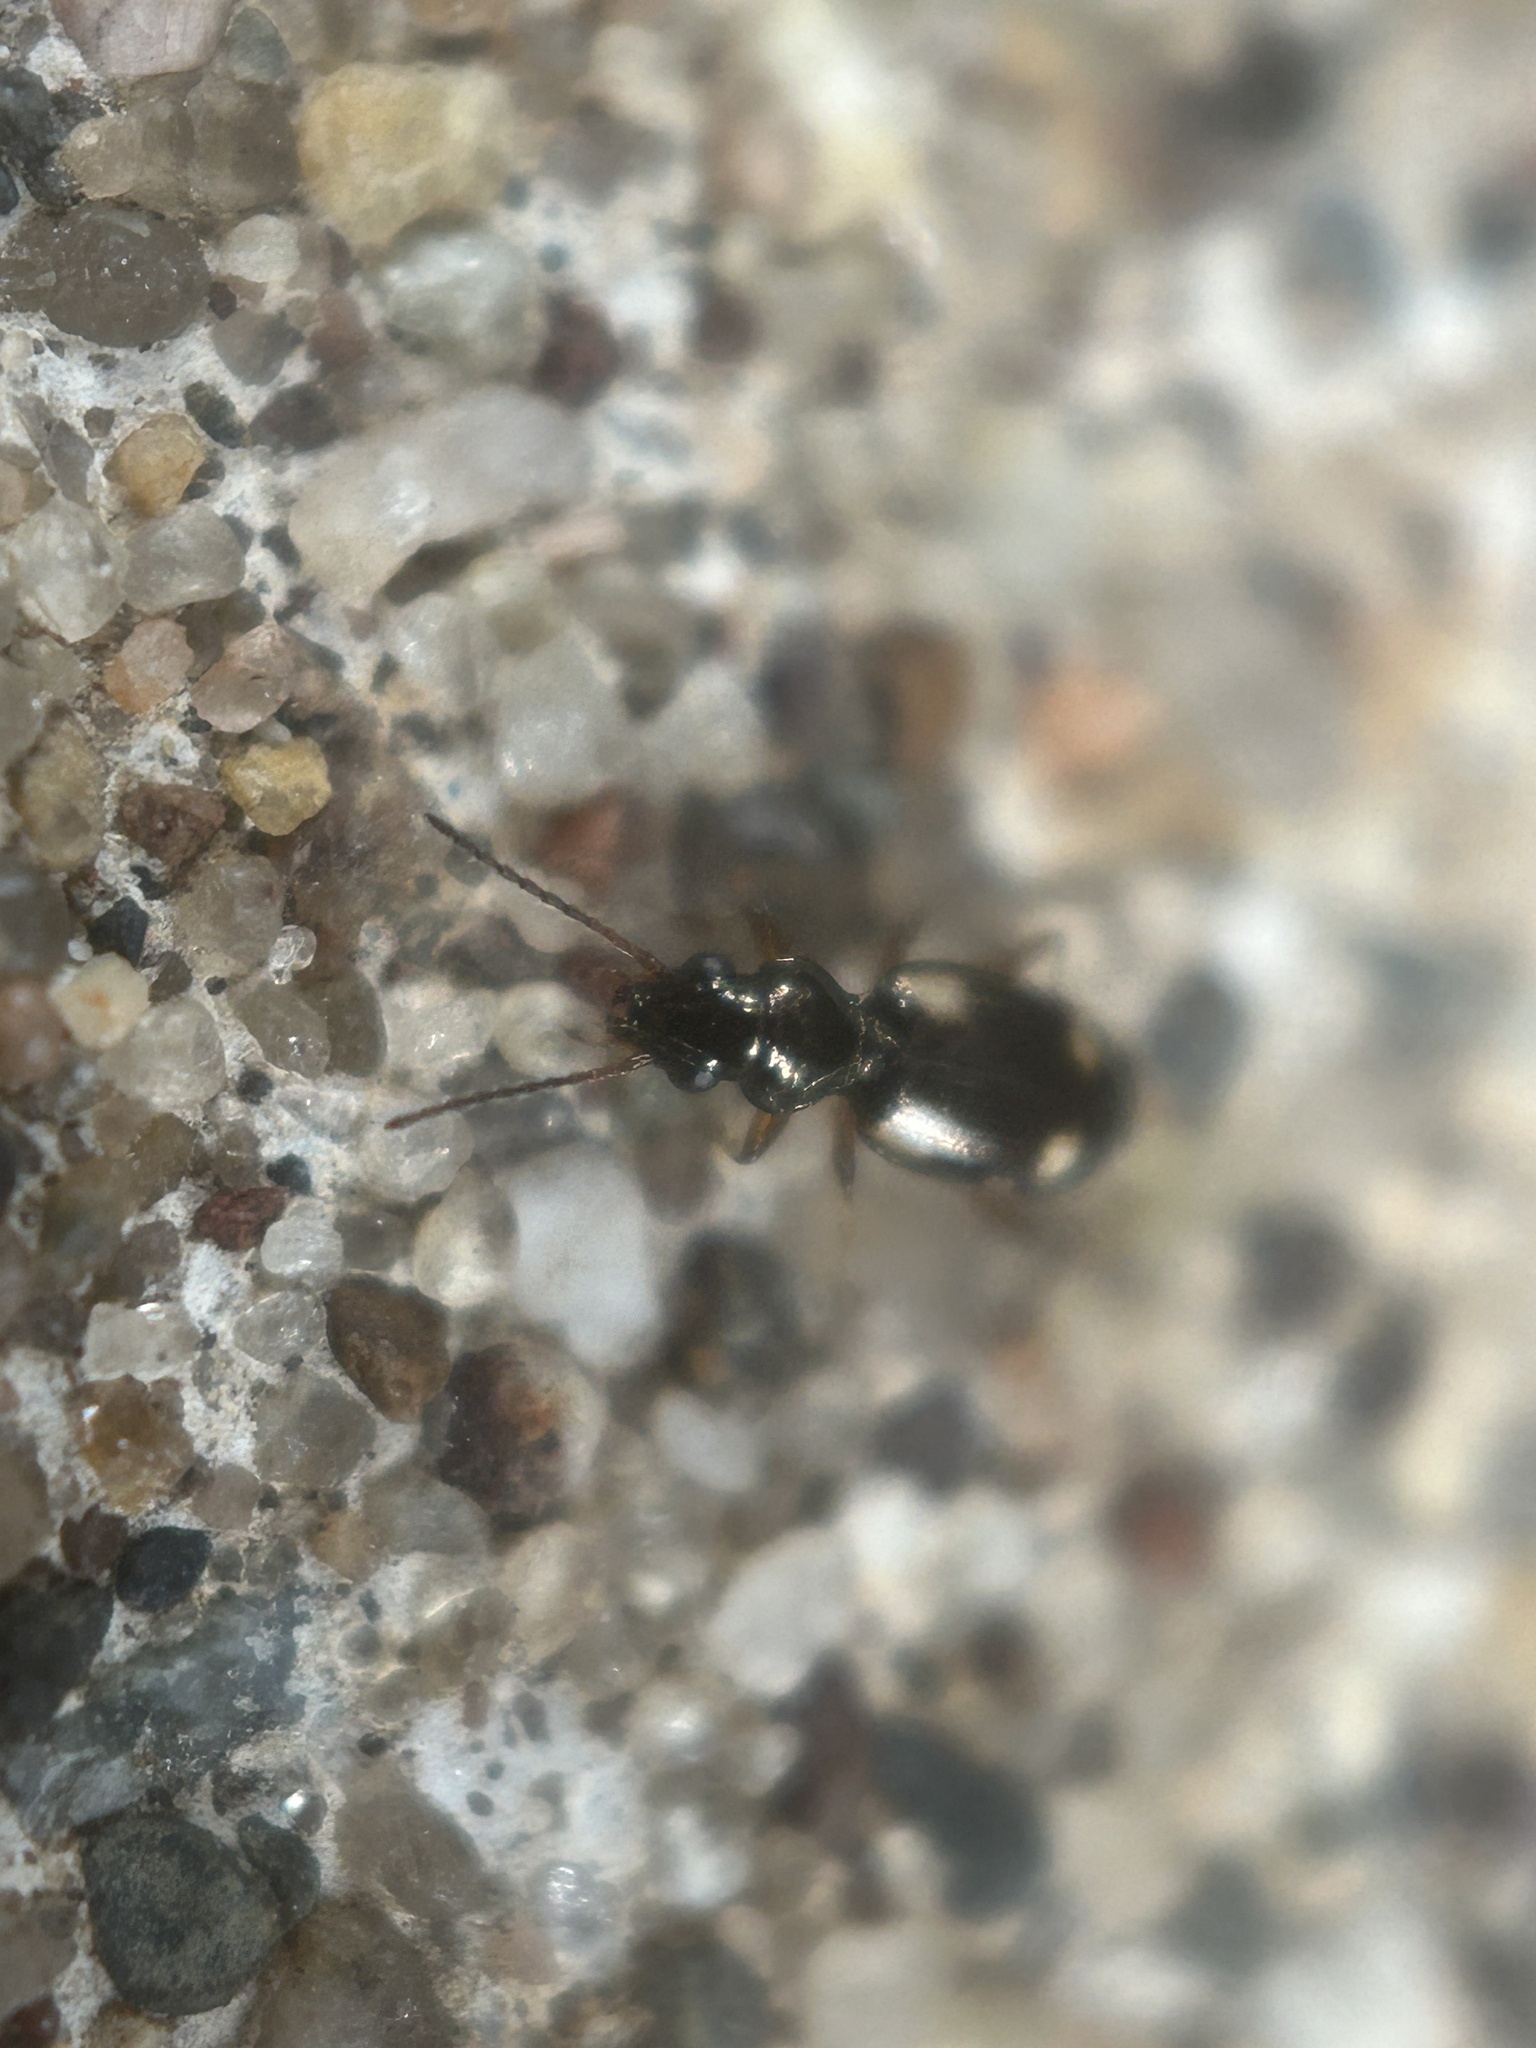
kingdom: Animalia
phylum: Arthropoda
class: Insecta
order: Coleoptera
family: Carabidae
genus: Bembidion
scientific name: Bembidion quadrimaculatum
